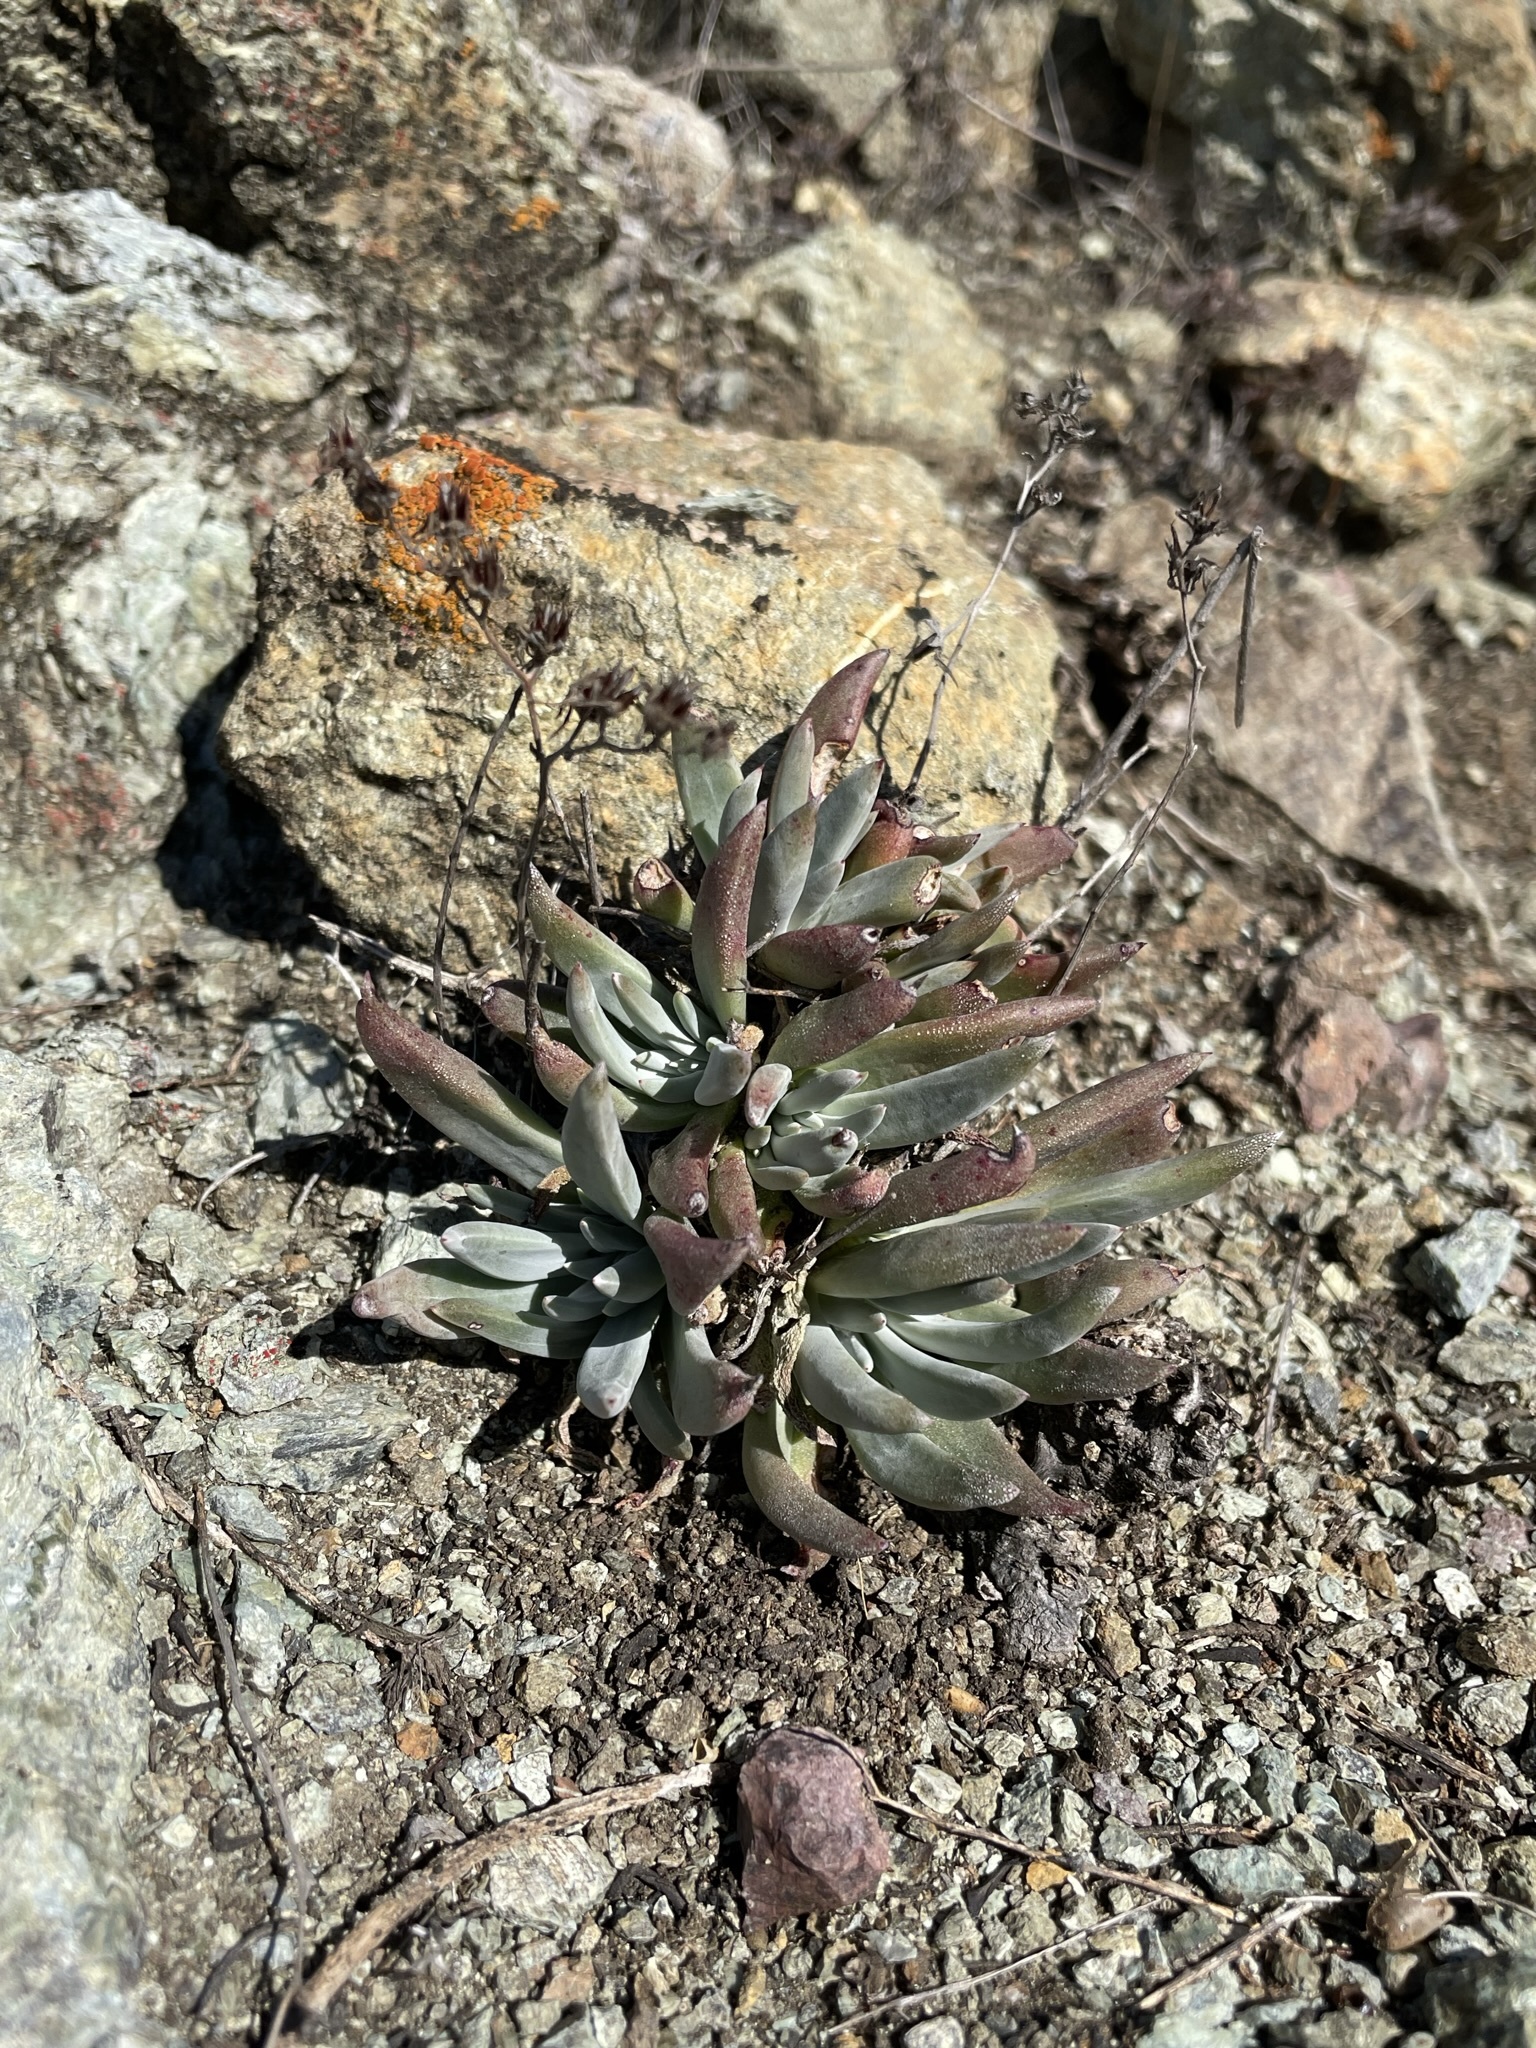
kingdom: Plantae
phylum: Tracheophyta
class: Magnoliopsida
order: Saxifragales
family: Crassulaceae
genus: Dudleya
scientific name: Dudleya abramsii
